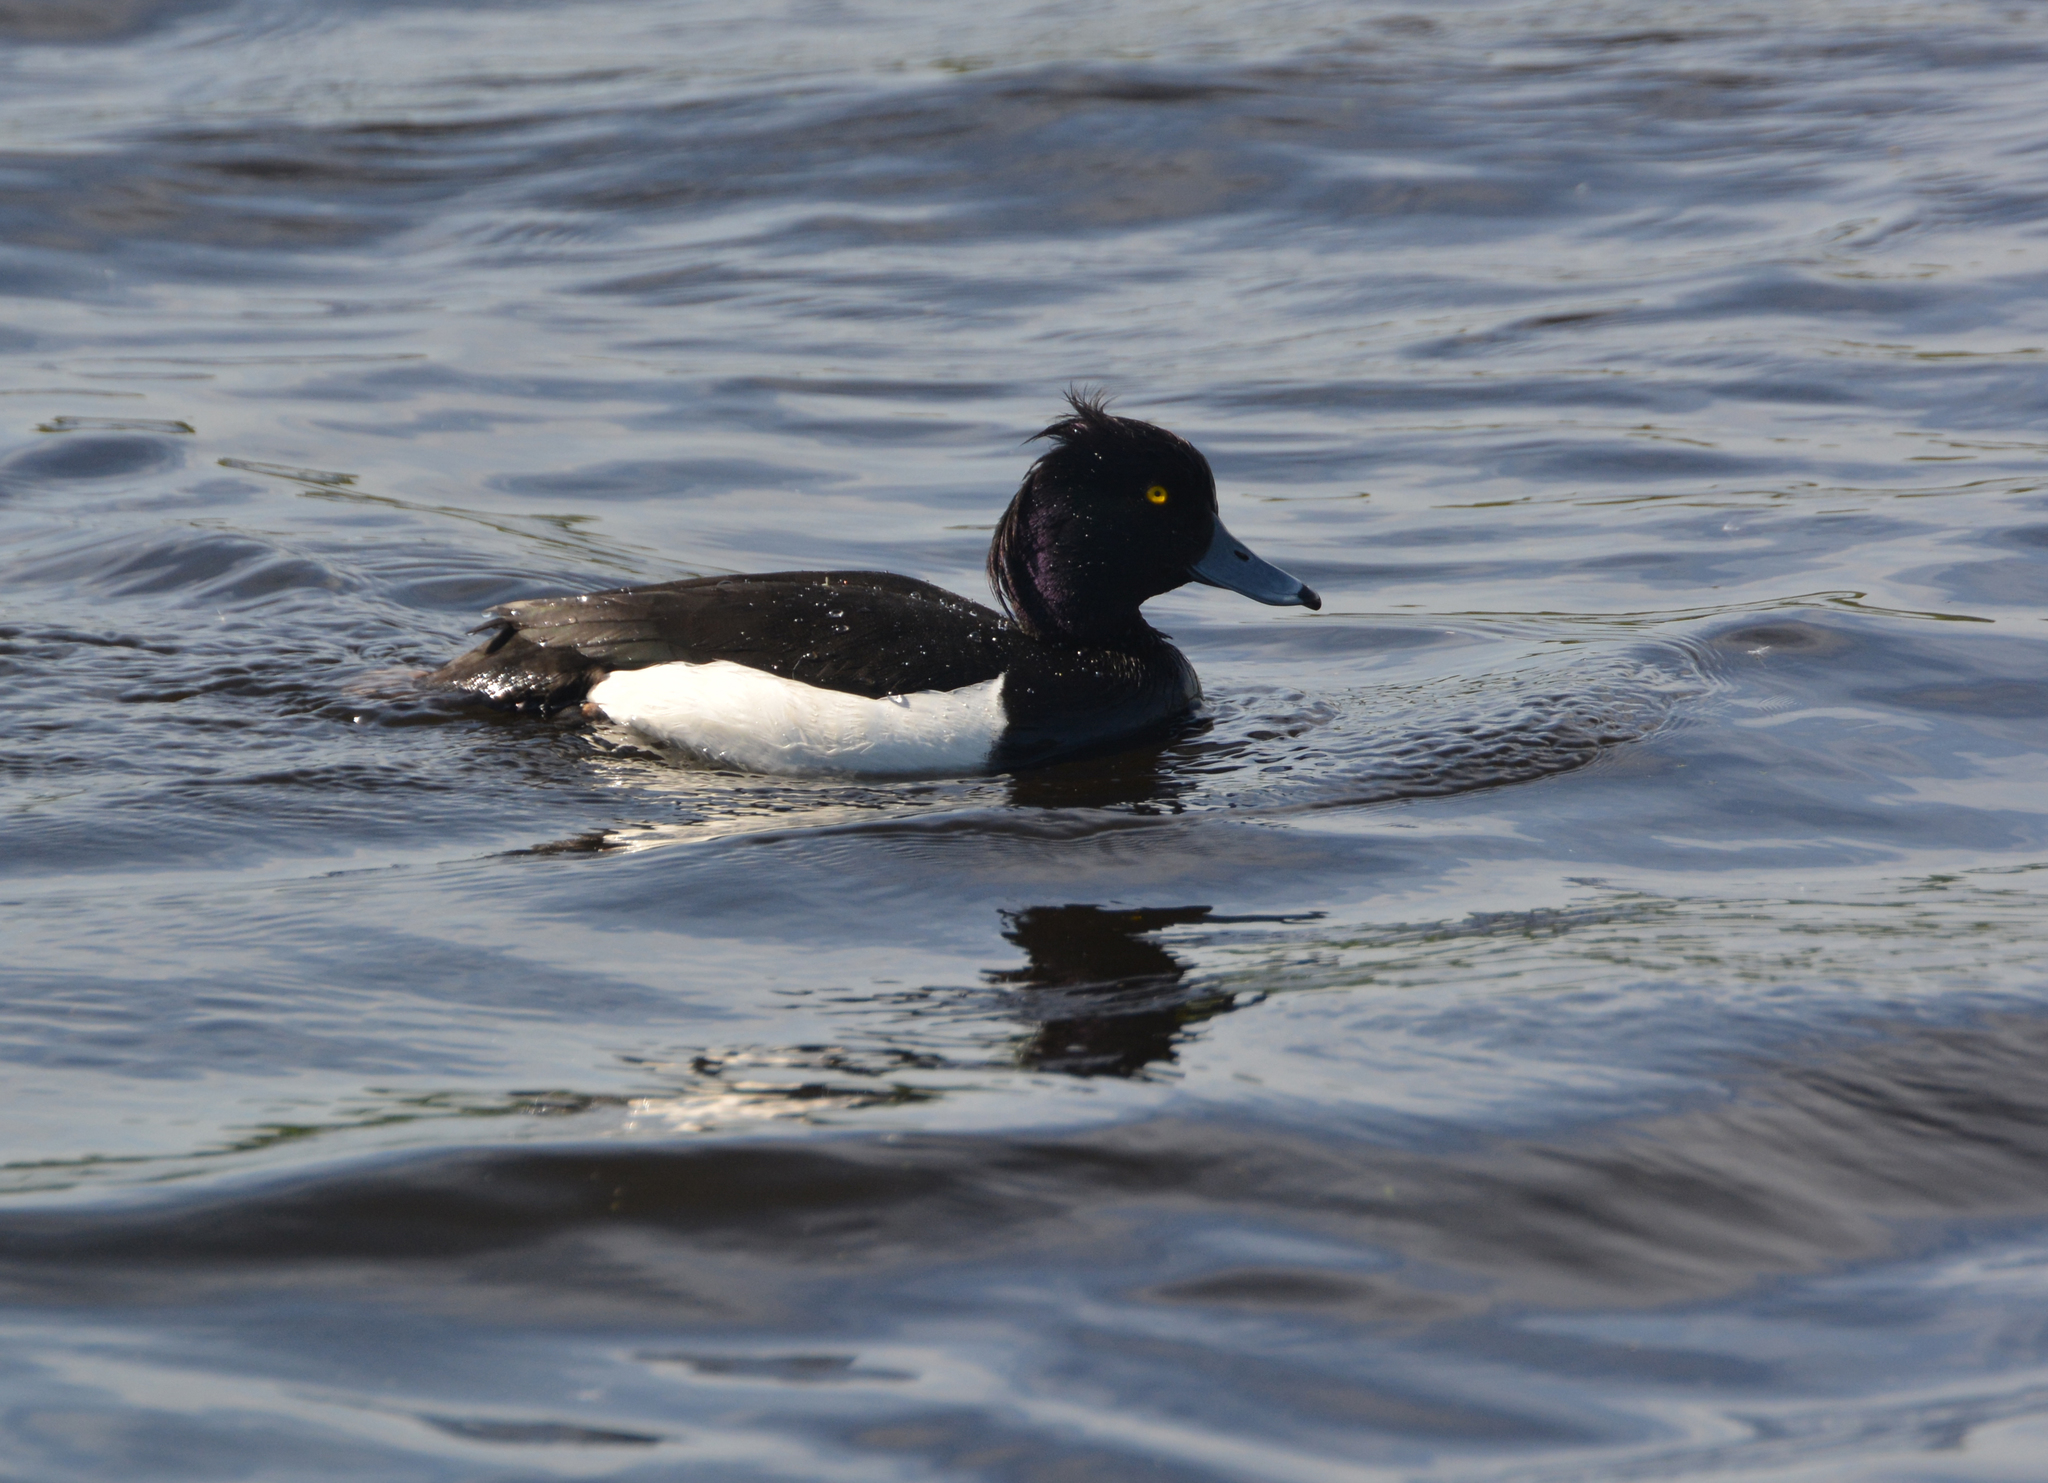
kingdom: Animalia
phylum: Chordata
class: Aves
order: Anseriformes
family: Anatidae
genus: Aythya
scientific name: Aythya fuligula
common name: Tufted duck
